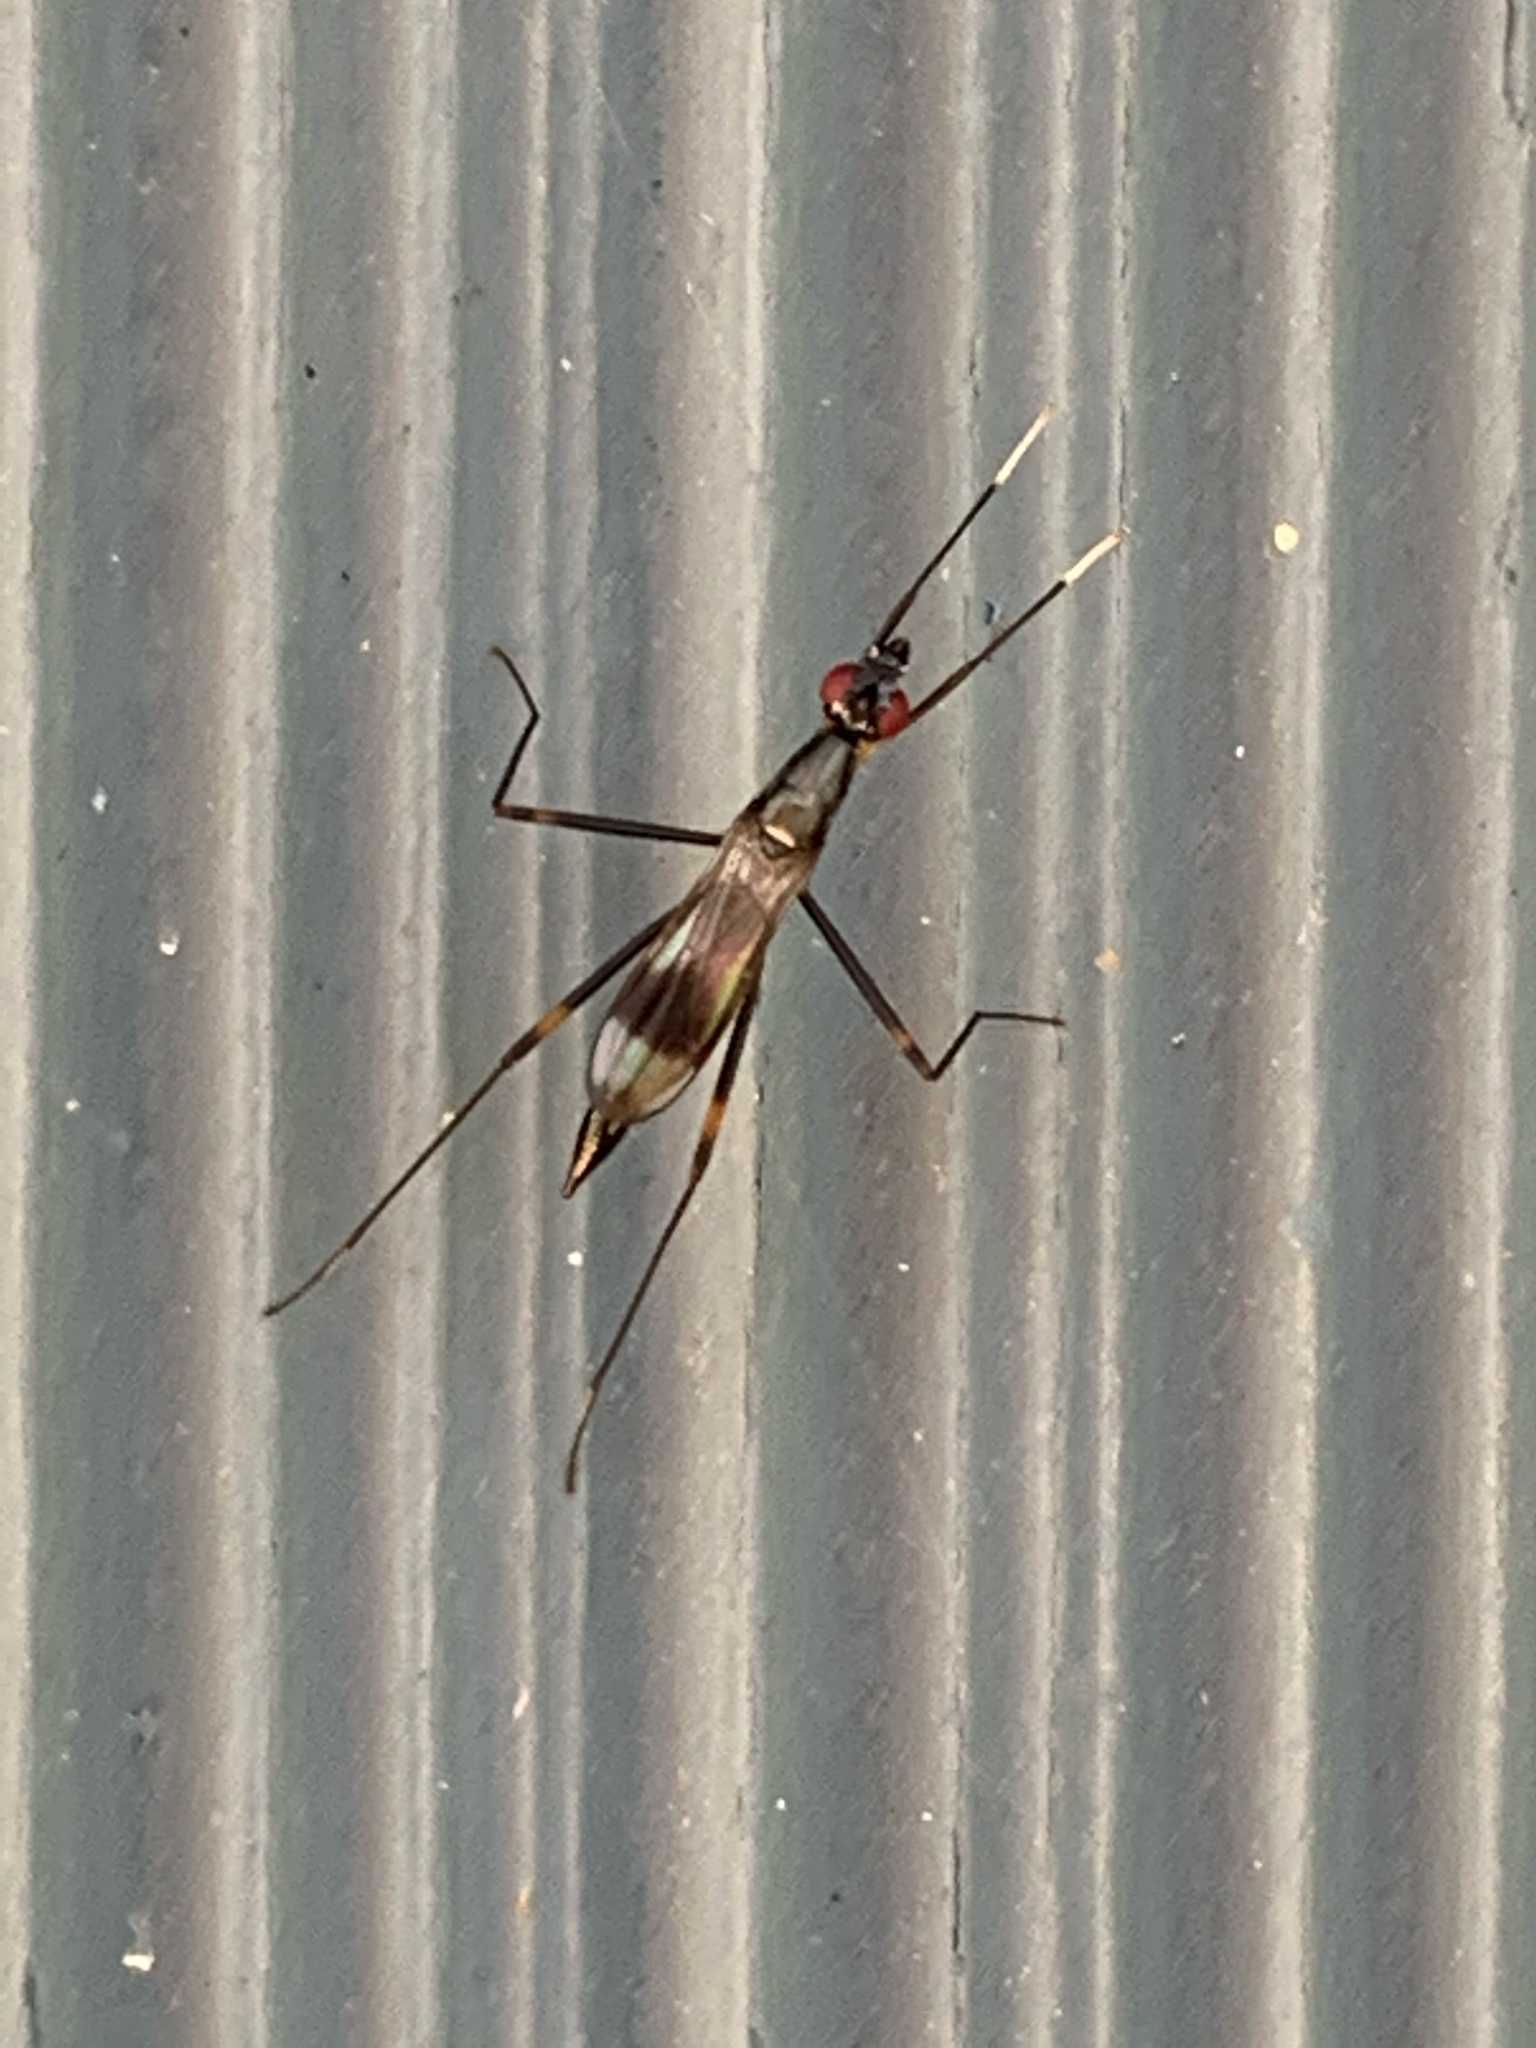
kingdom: Animalia
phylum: Arthropoda
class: Insecta
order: Diptera
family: Micropezidae
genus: Rainieria
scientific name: Rainieria antennaepes
